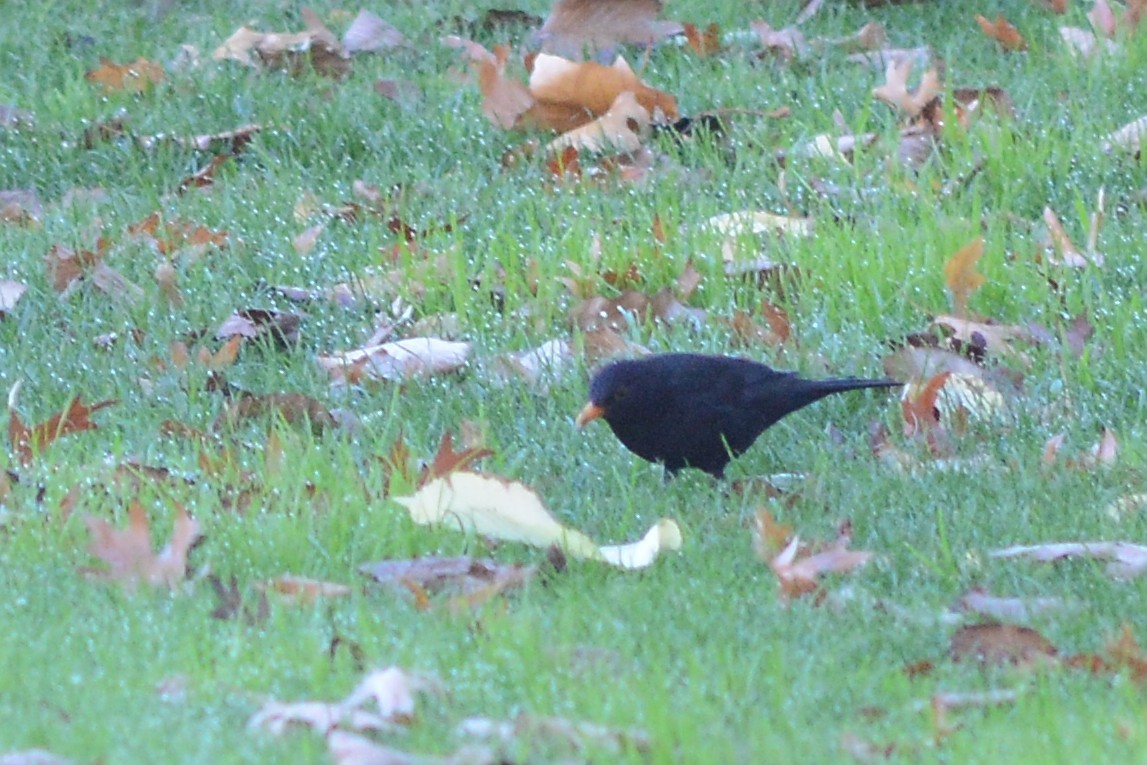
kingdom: Animalia
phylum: Chordata
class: Aves
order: Passeriformes
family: Turdidae
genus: Turdus
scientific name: Turdus merula
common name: Common blackbird
